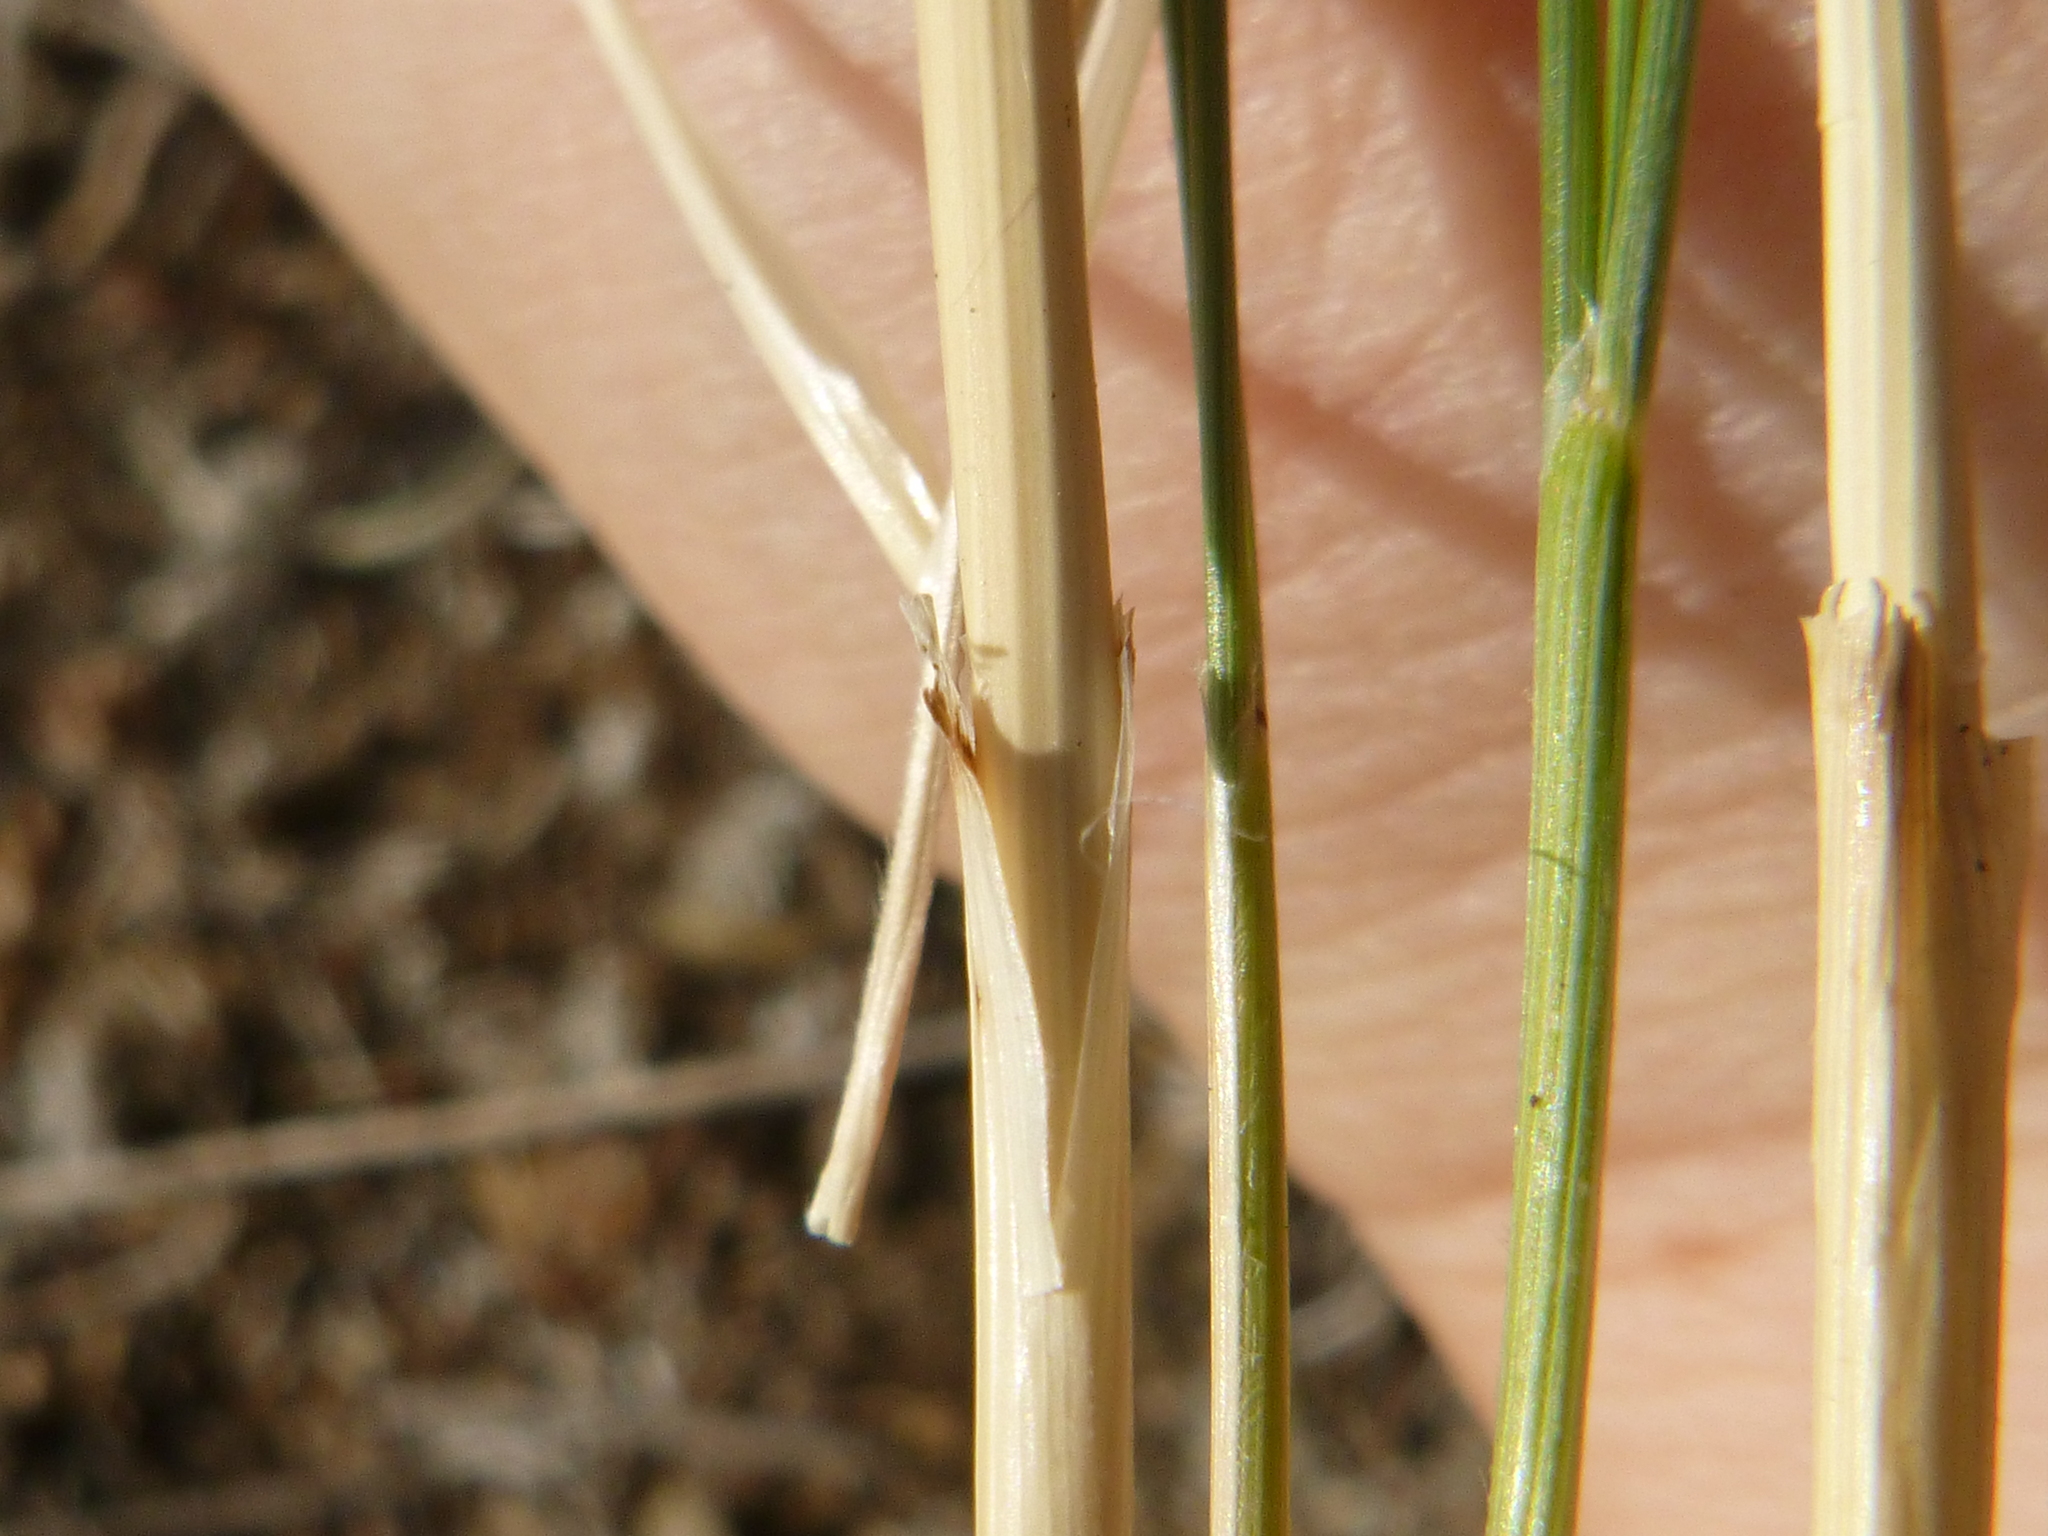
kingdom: Plantae
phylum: Tracheophyta
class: Liliopsida
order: Poales
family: Poaceae
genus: Stipa
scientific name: Stipa iberica
